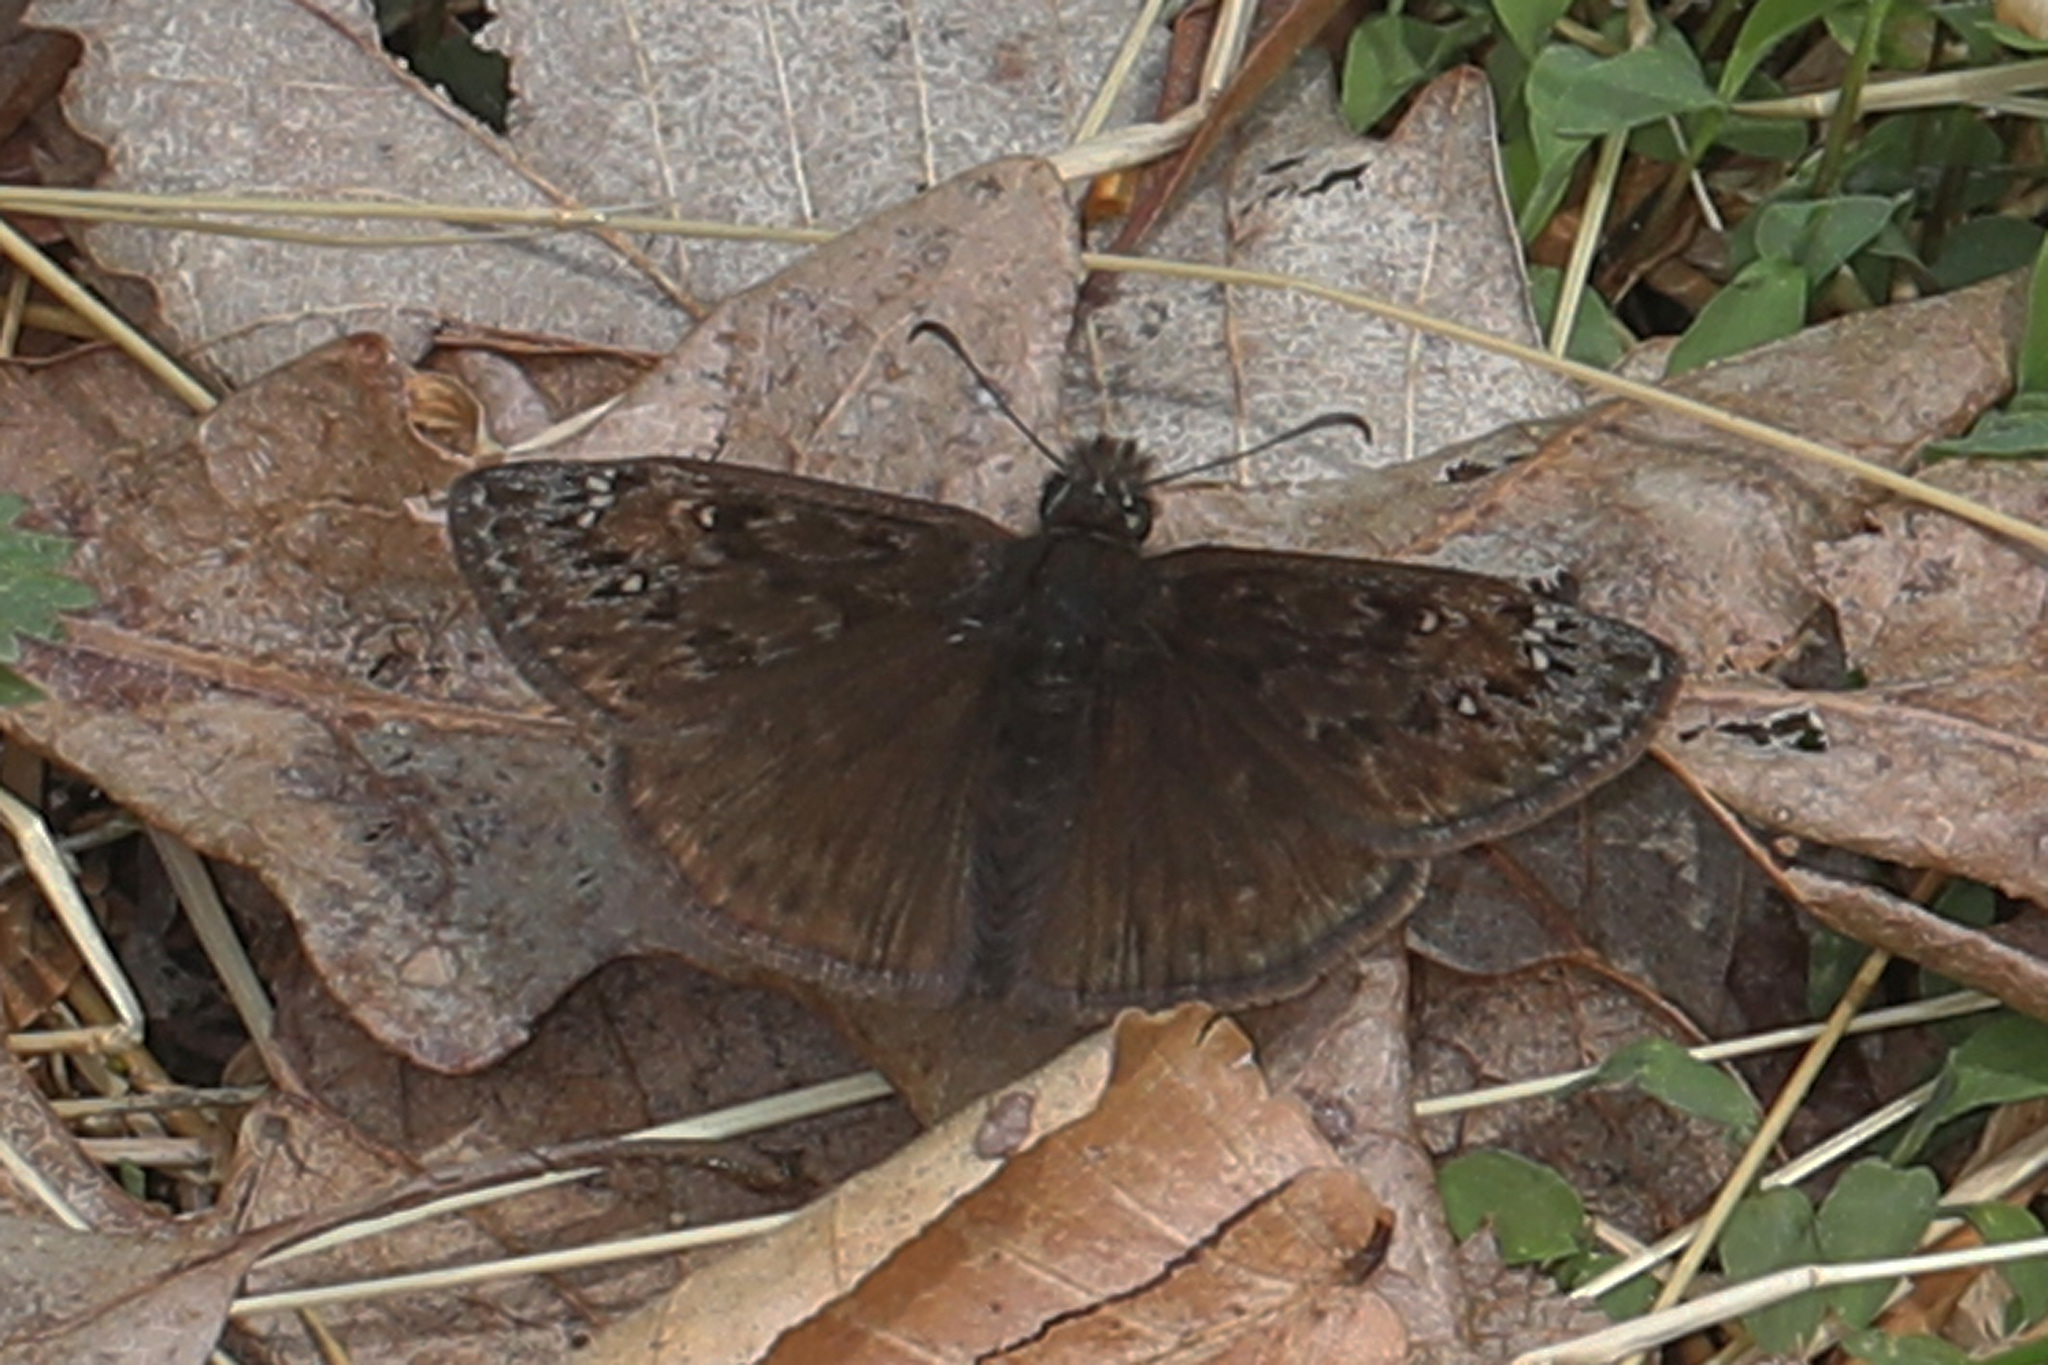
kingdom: Animalia
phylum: Arthropoda
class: Insecta
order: Lepidoptera
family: Hesperiidae
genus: Erynnis
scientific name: Erynnis juvenalis
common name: Juvenal's duskywing
